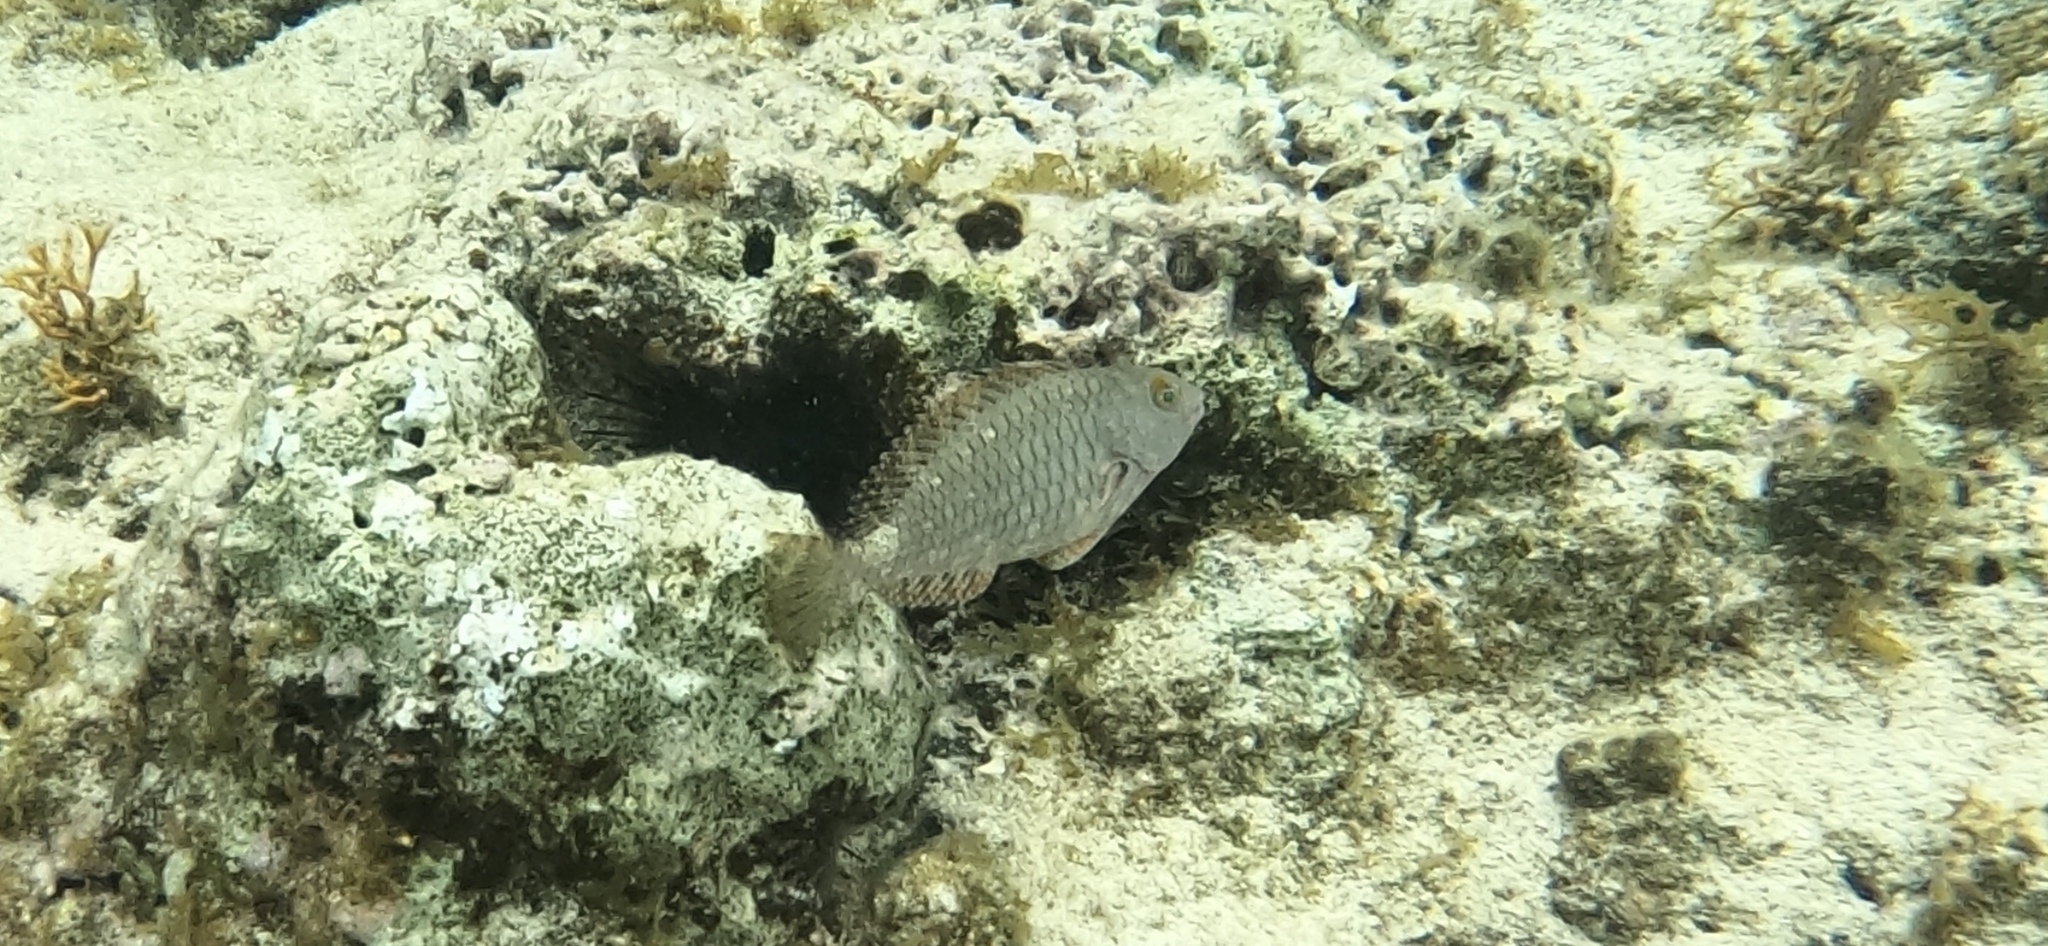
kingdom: Animalia
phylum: Chordata
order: Perciformes
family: Scaridae
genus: Sparisoma
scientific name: Sparisoma aurofrenatum
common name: Redband parrotfish
